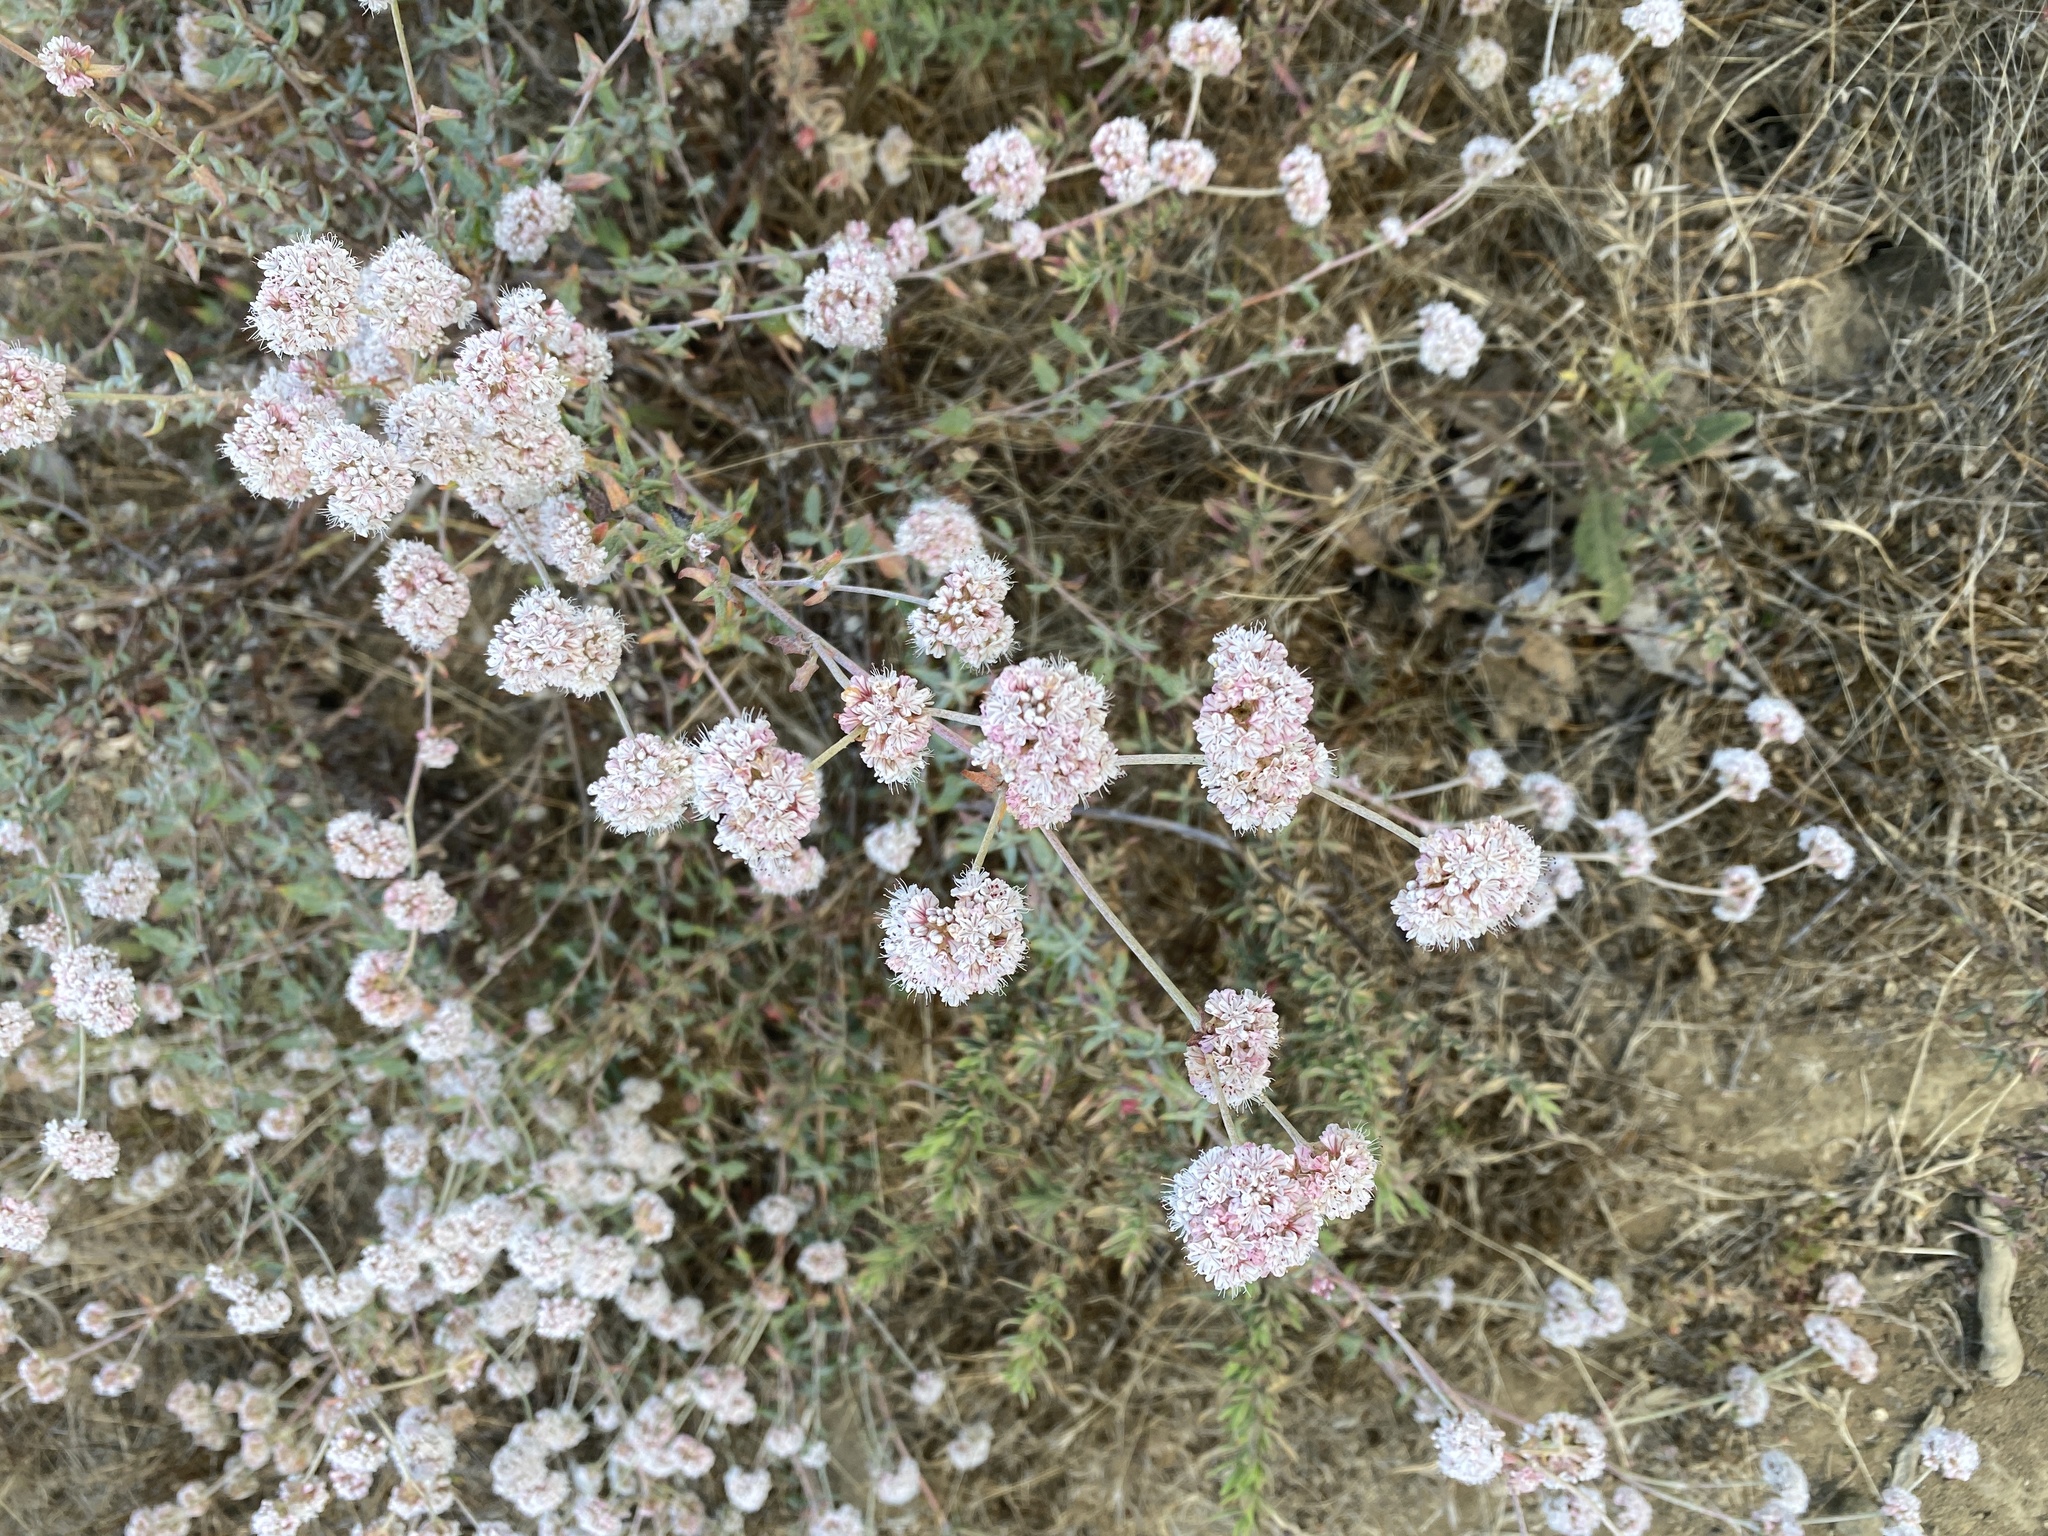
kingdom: Plantae
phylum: Tracheophyta
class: Magnoliopsida
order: Caryophyllales
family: Polygonaceae
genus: Eriogonum
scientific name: Eriogonum parvifolium
